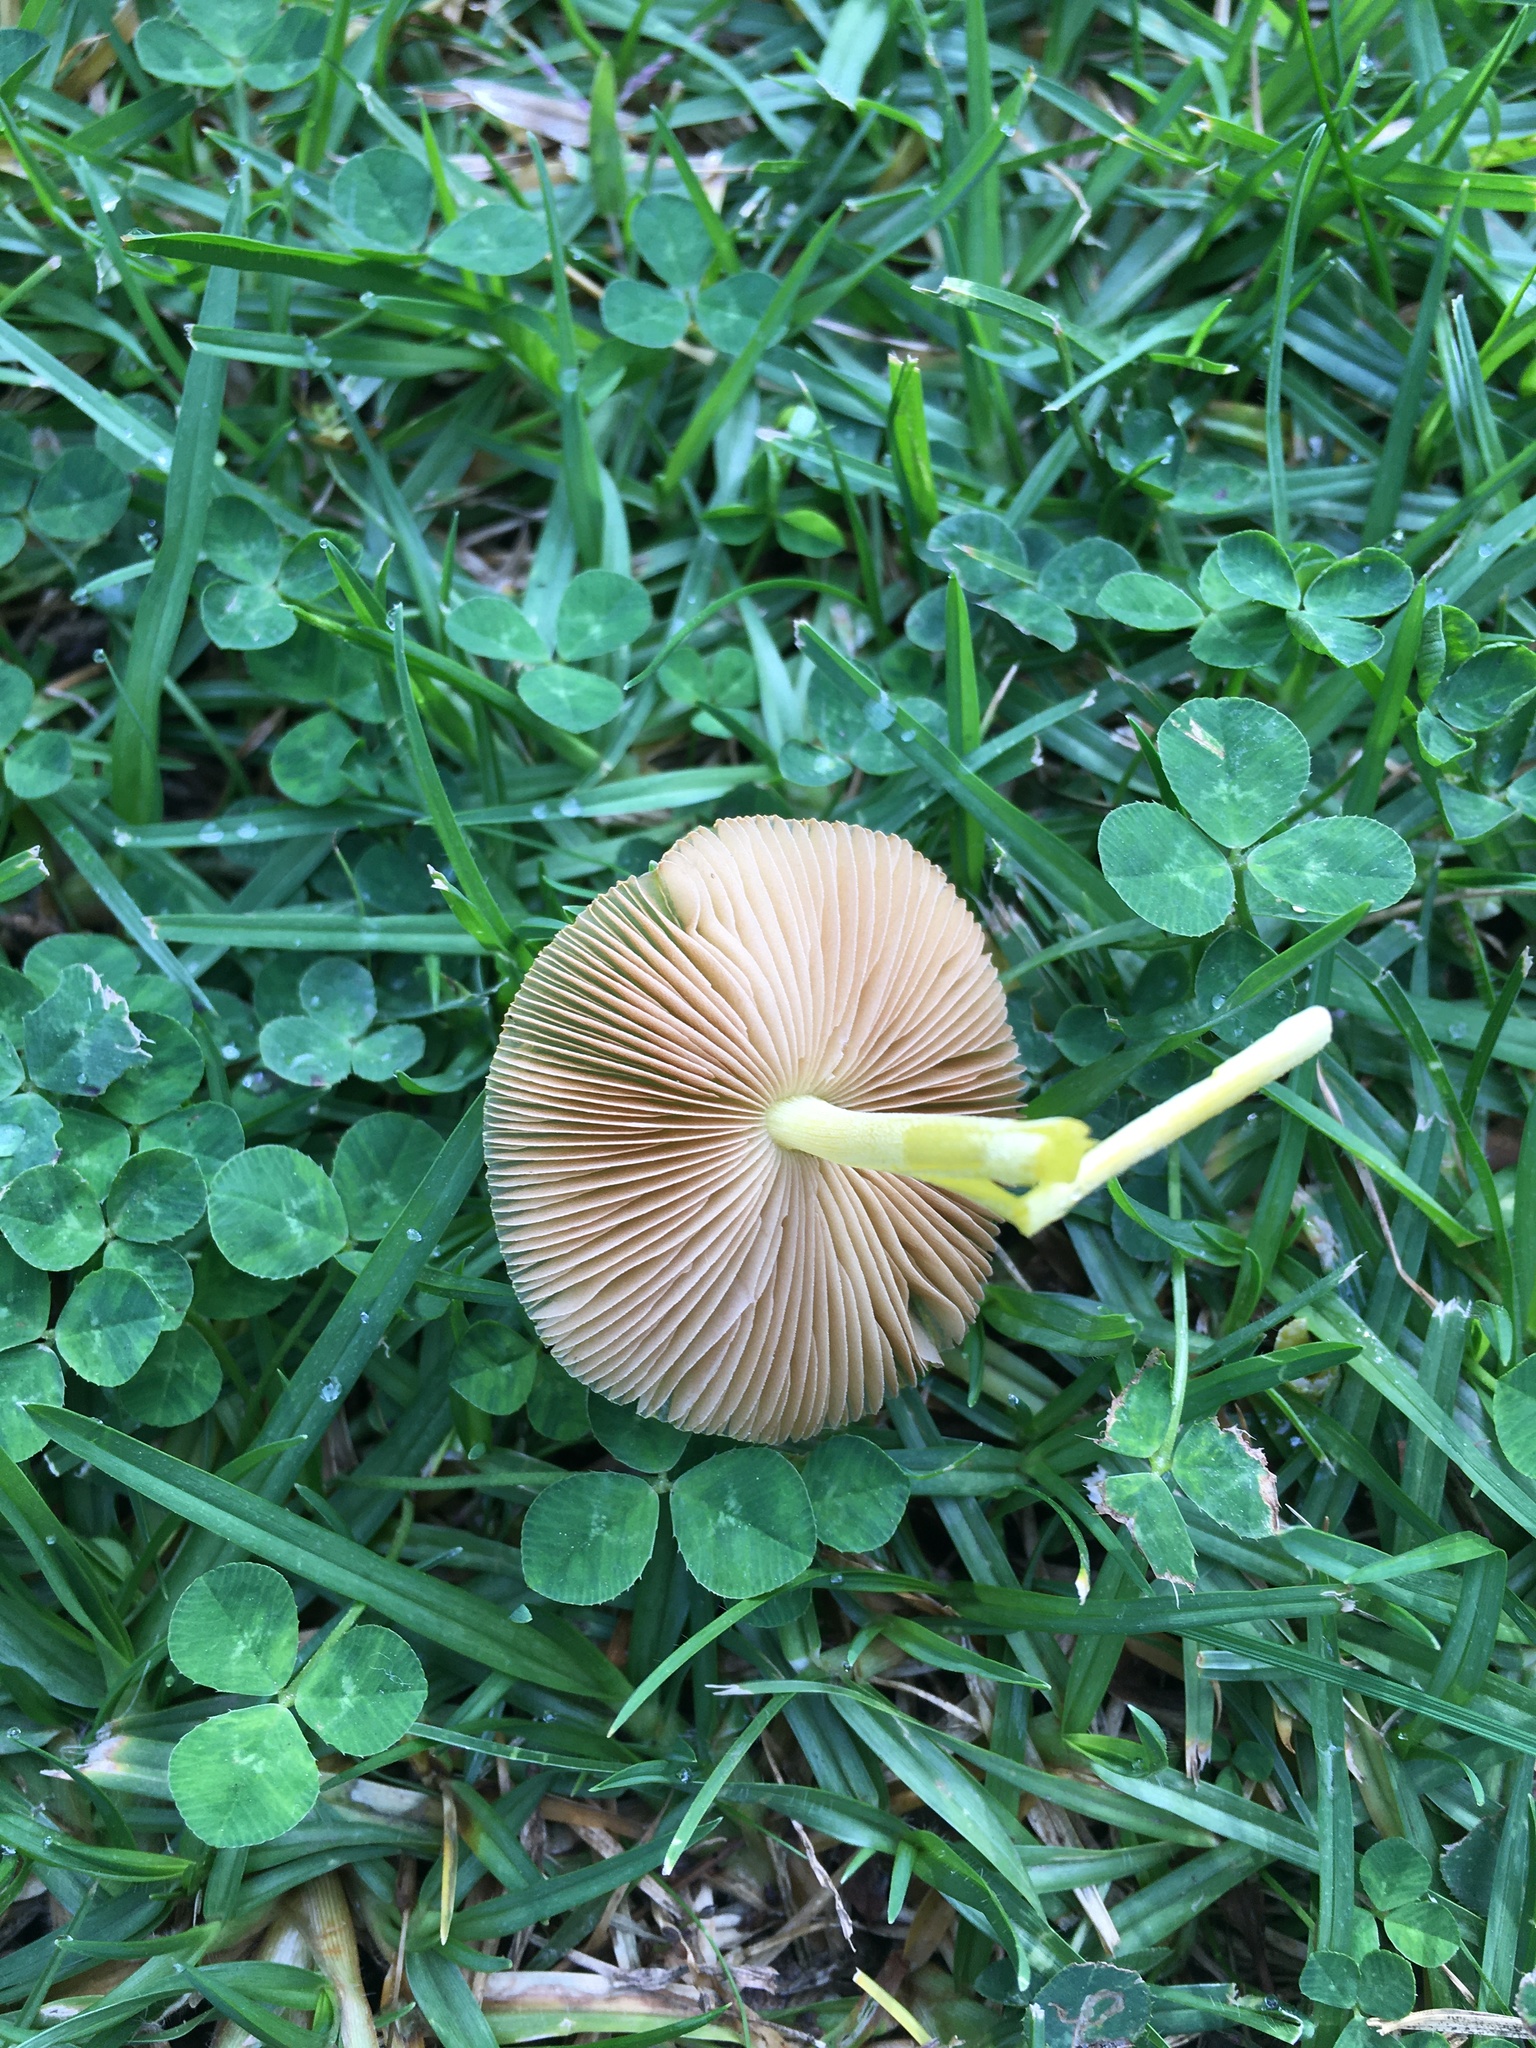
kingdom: Fungi
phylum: Basidiomycota
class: Agaricomycetes
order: Agaricales
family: Bolbitiaceae
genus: Bolbitius
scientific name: Bolbitius titubans
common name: Yellow fieldcap
